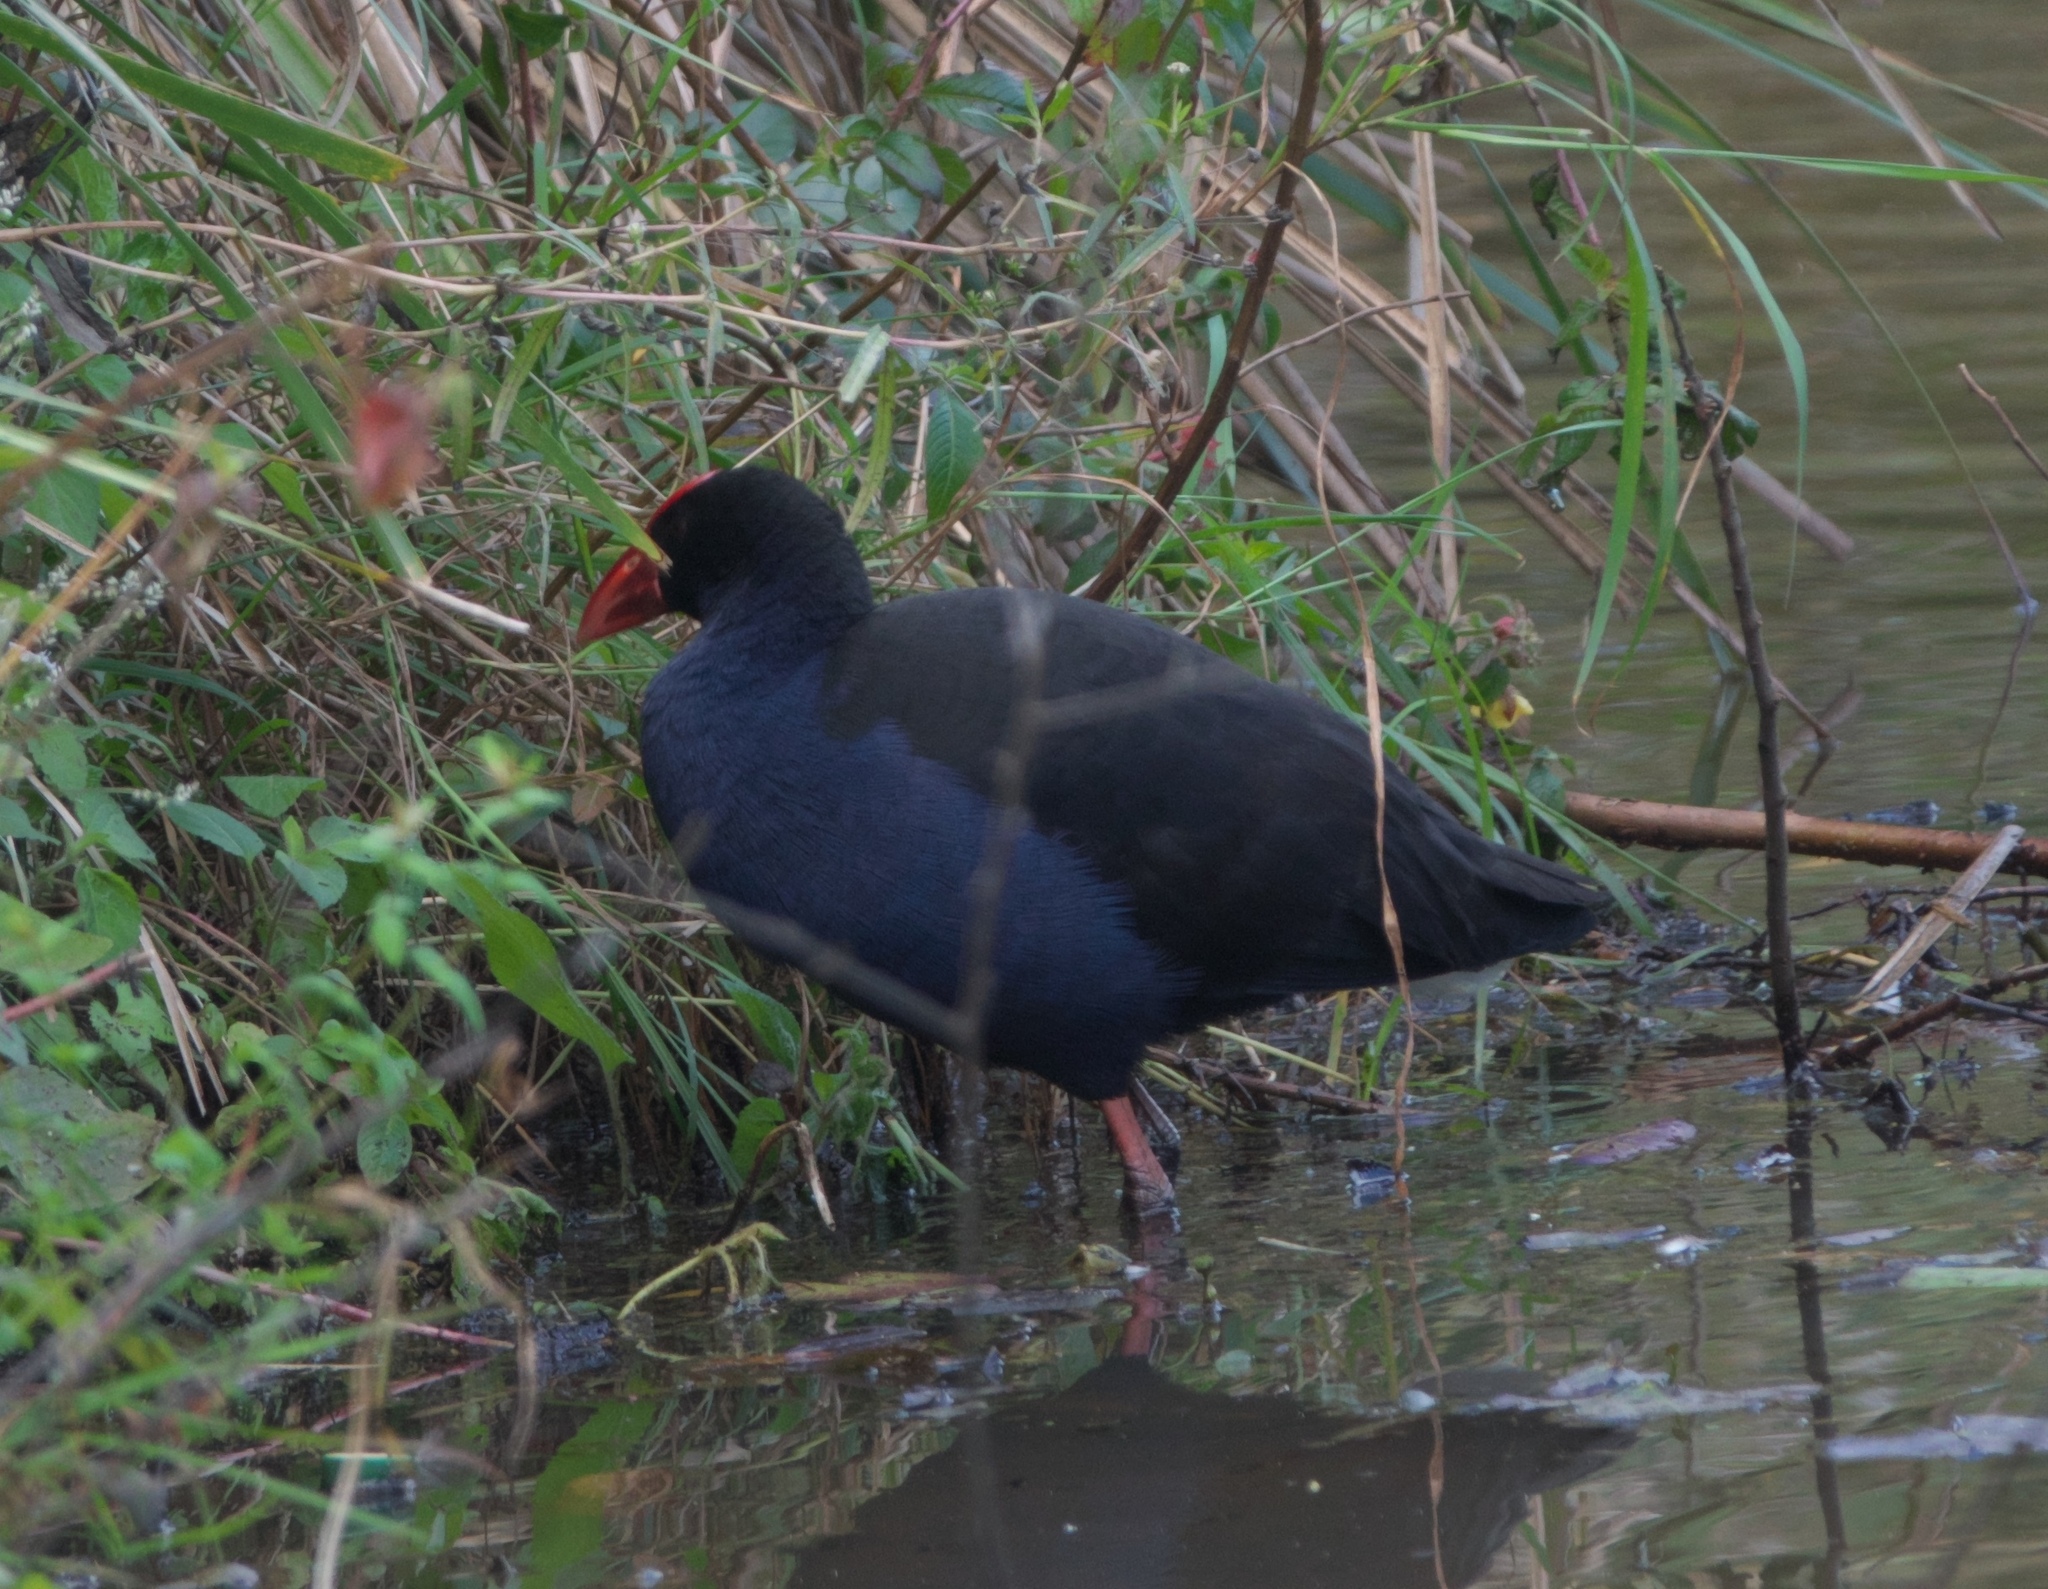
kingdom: Animalia
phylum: Chordata
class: Aves
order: Gruiformes
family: Rallidae
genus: Porphyrio
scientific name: Porphyrio melanotus
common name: Australasian swamphen
